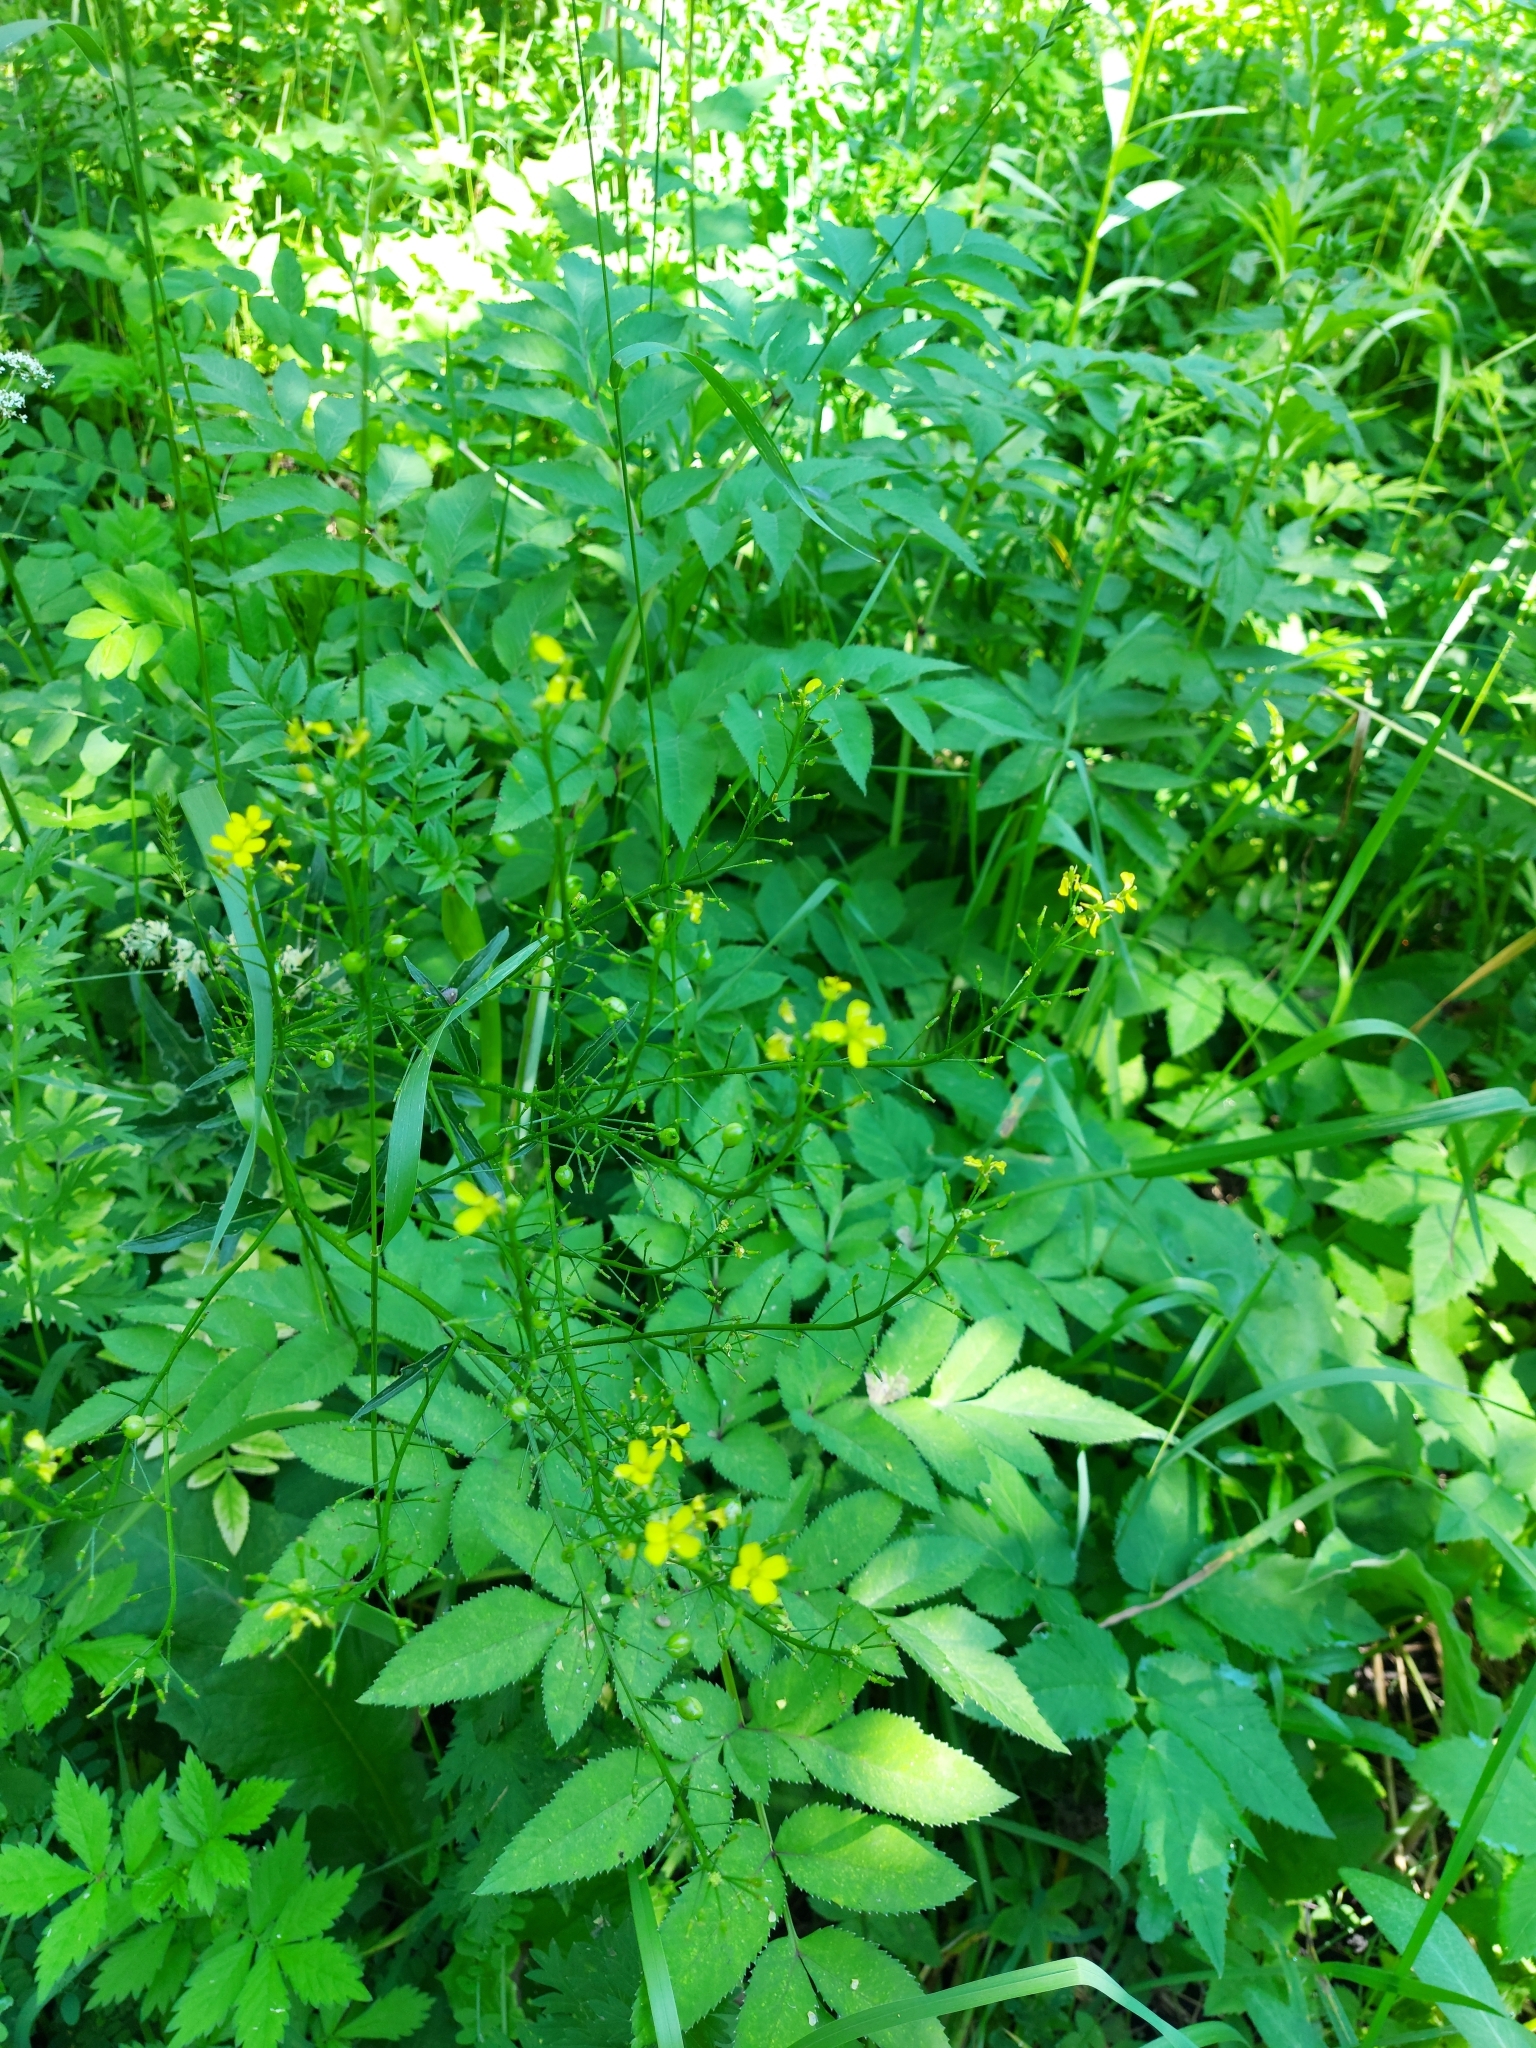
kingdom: Plantae
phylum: Tracheophyta
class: Magnoliopsida
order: Brassicales
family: Brassicaceae
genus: Bunias
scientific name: Bunias orientalis
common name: Warty-cabbage
